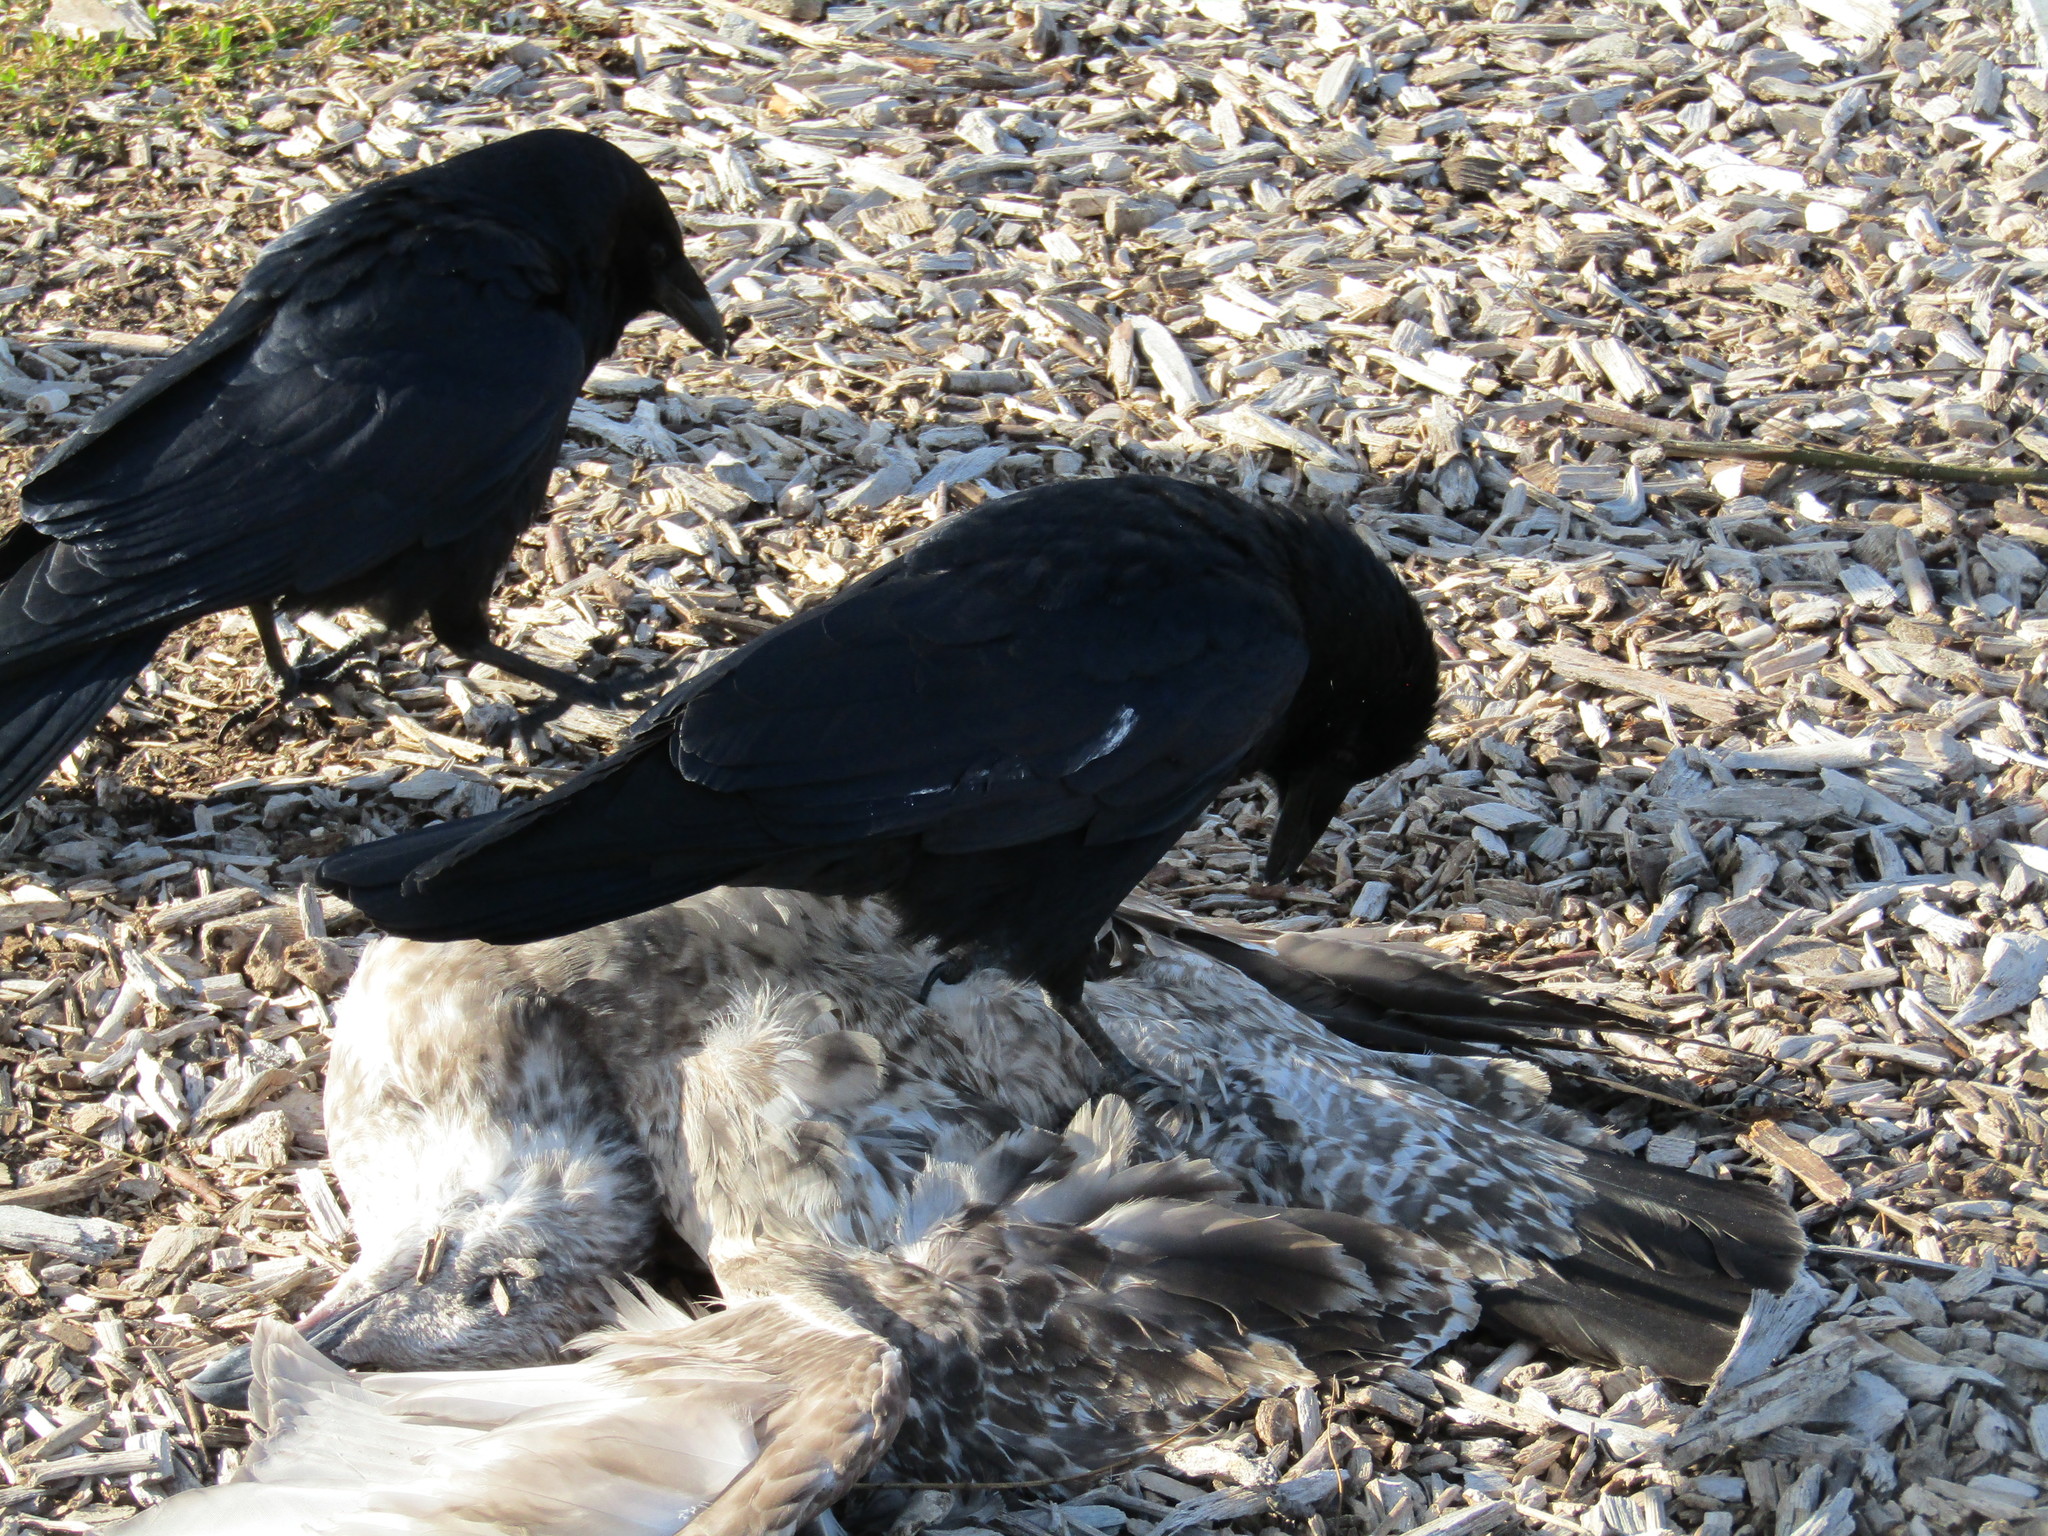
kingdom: Animalia
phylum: Chordata
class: Aves
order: Passeriformes
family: Corvidae
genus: Corvus
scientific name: Corvus brachyrhynchos
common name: American crow
